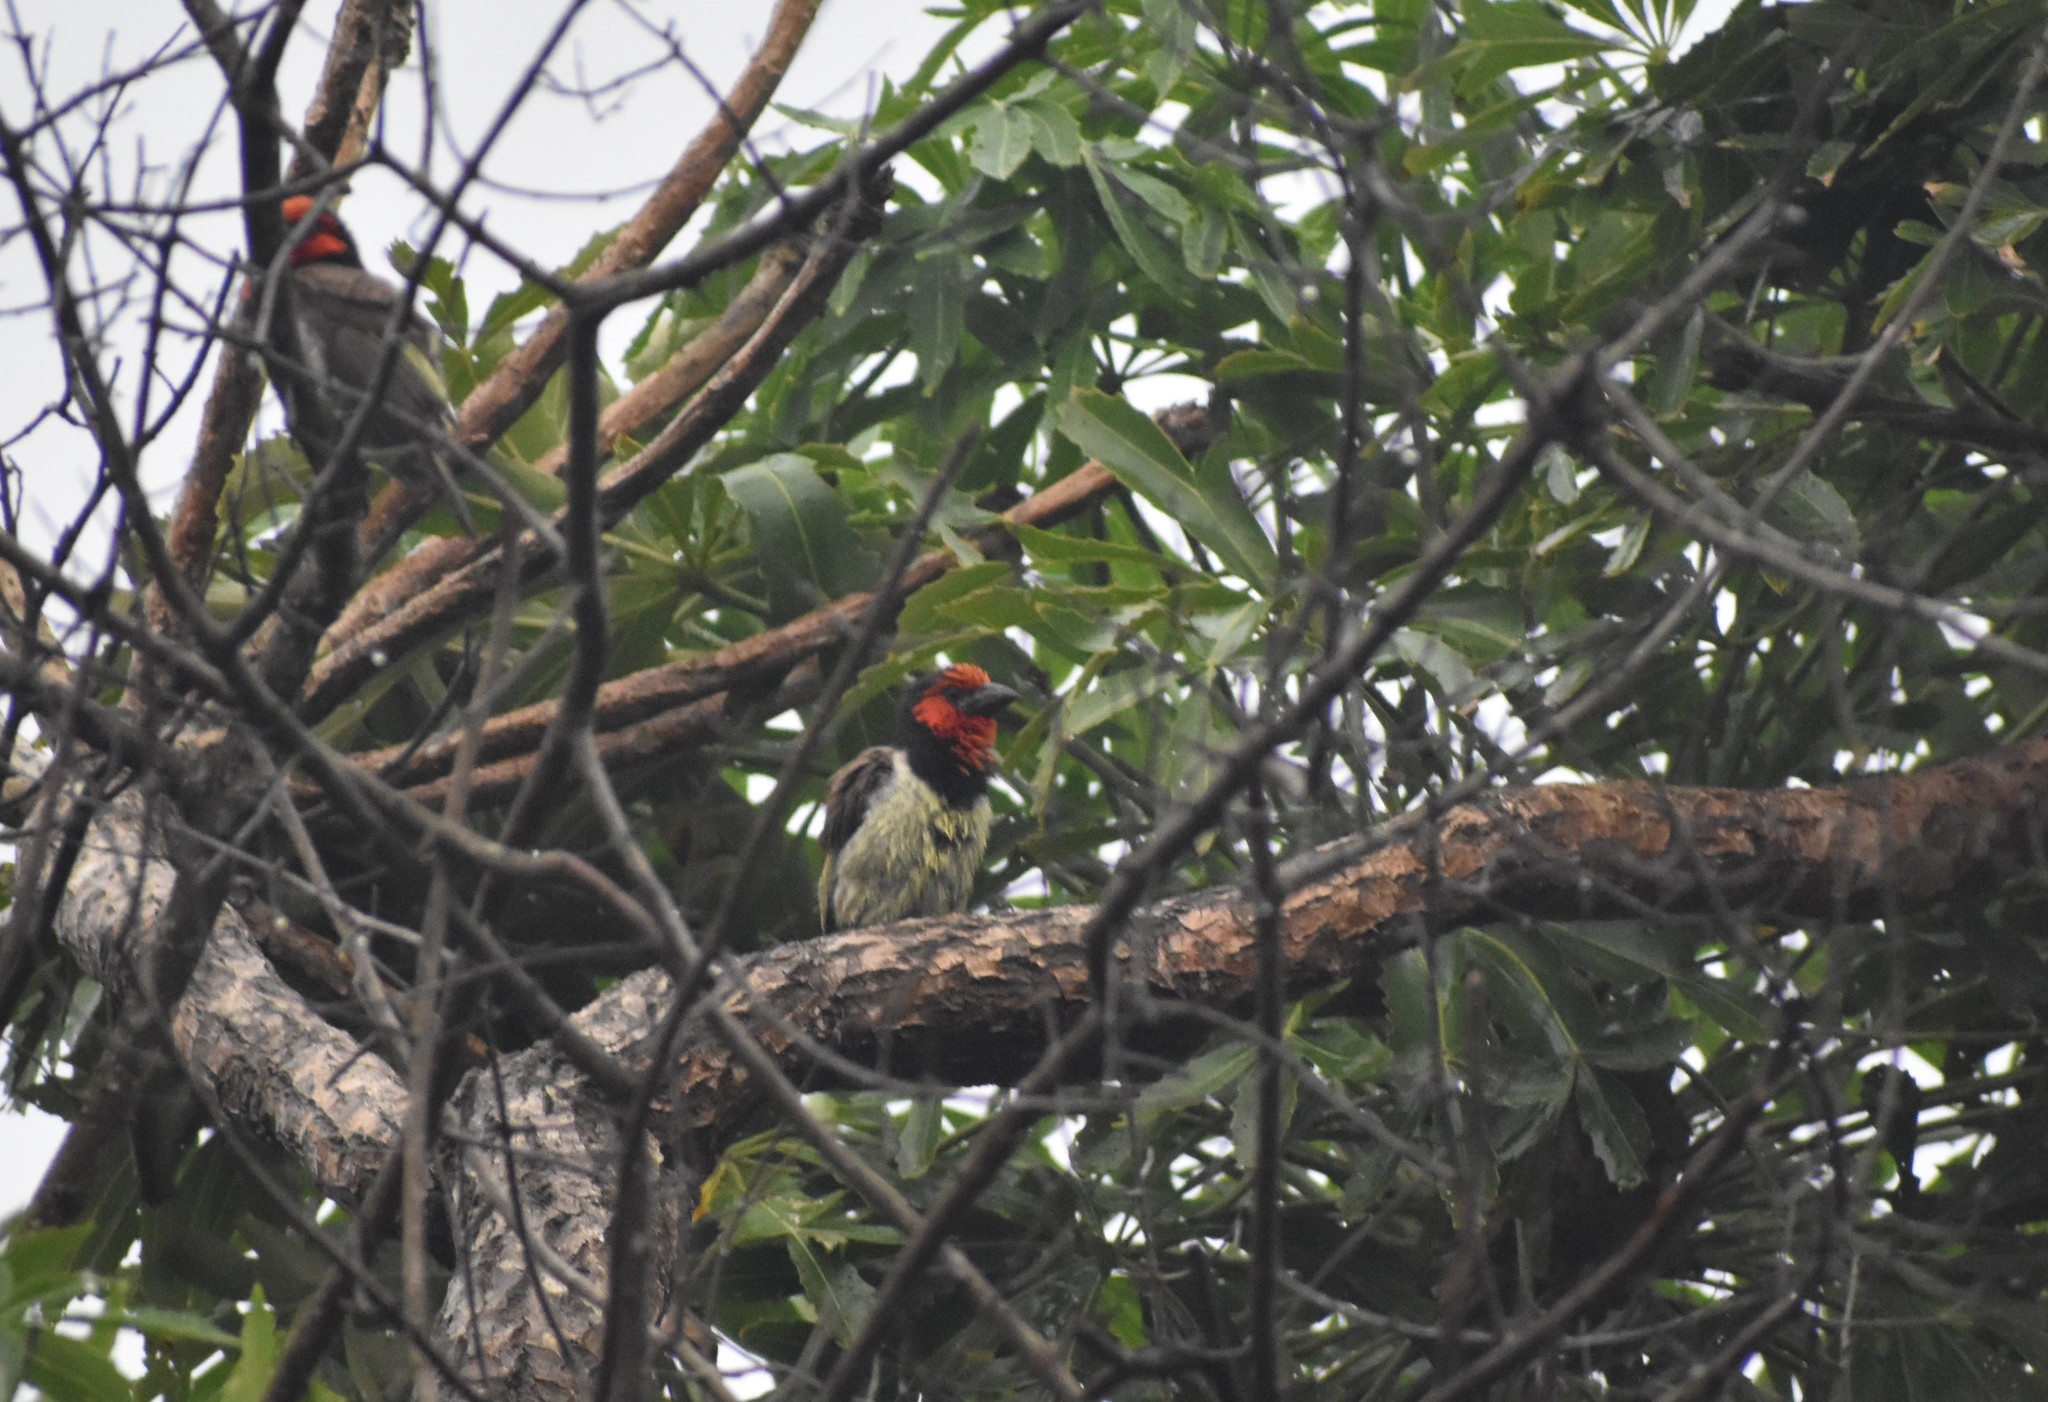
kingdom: Animalia
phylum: Chordata
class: Aves
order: Piciformes
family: Lybiidae
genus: Lybius
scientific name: Lybius torquatus
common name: Black-collared barbet
